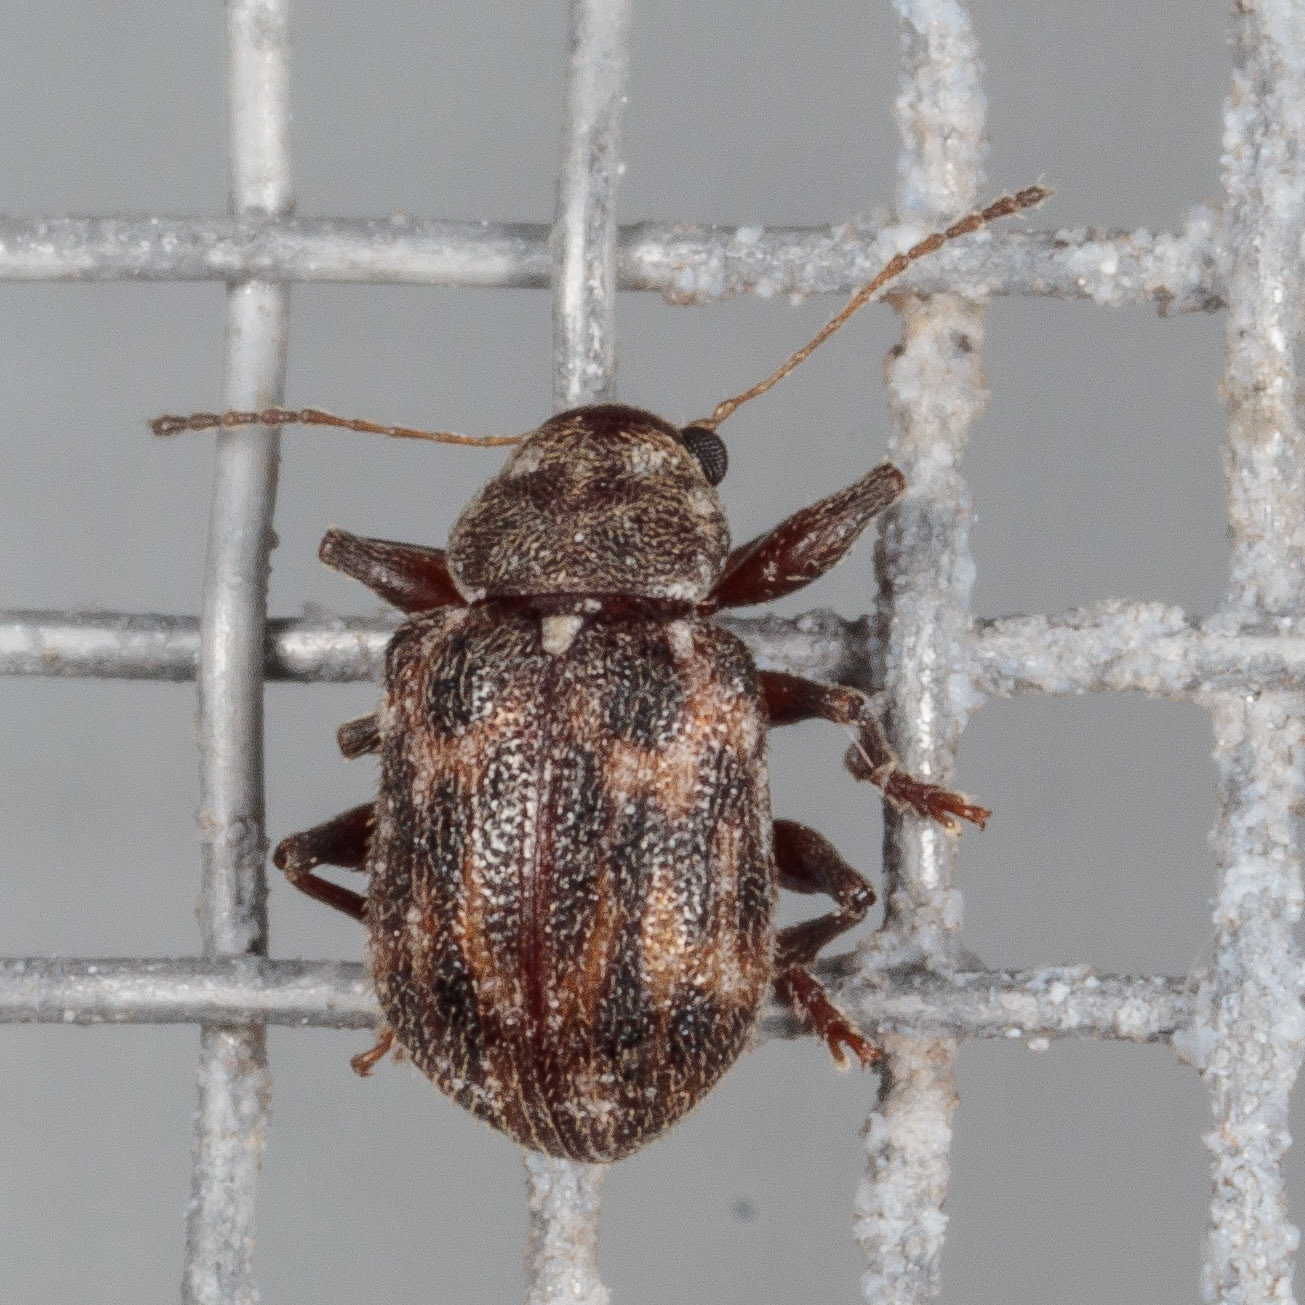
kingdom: Animalia
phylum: Arthropoda
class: Insecta
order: Coleoptera
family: Chrysomelidae
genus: Xanthonia
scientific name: Xanthonia picturata
